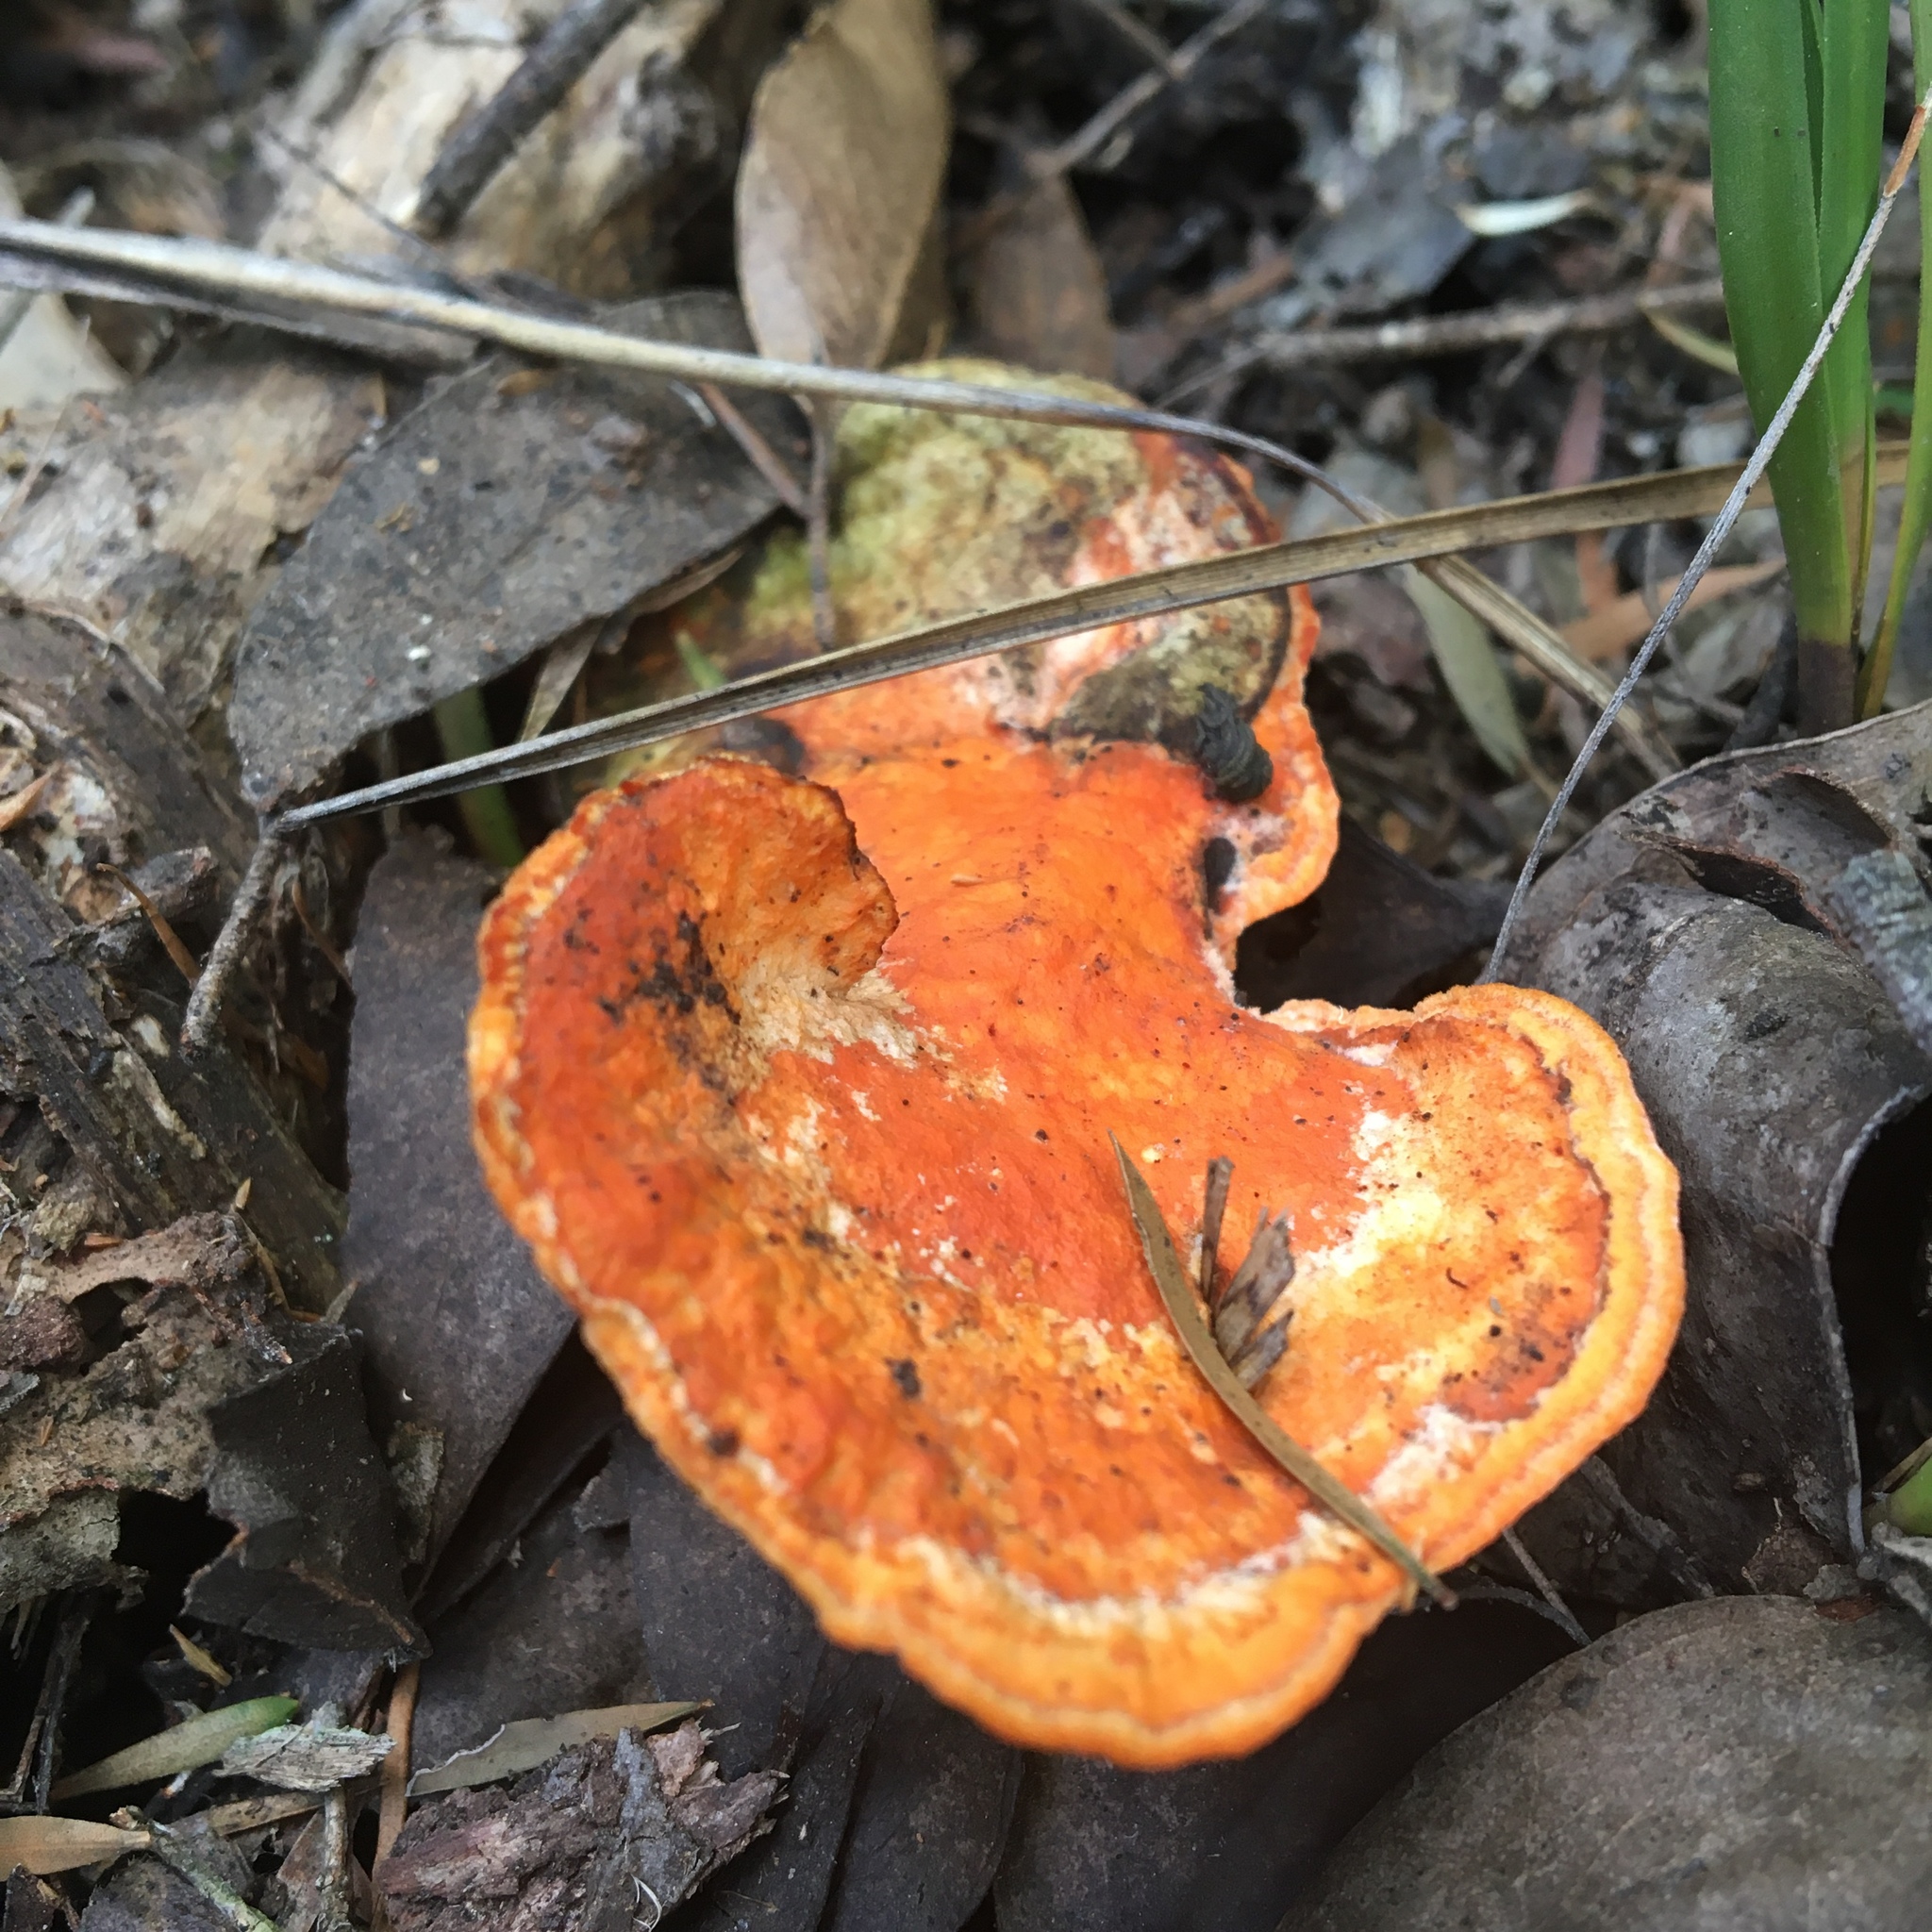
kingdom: Fungi
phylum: Basidiomycota
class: Agaricomycetes
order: Polyporales
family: Polyporaceae
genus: Trametes
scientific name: Trametes coccinea
